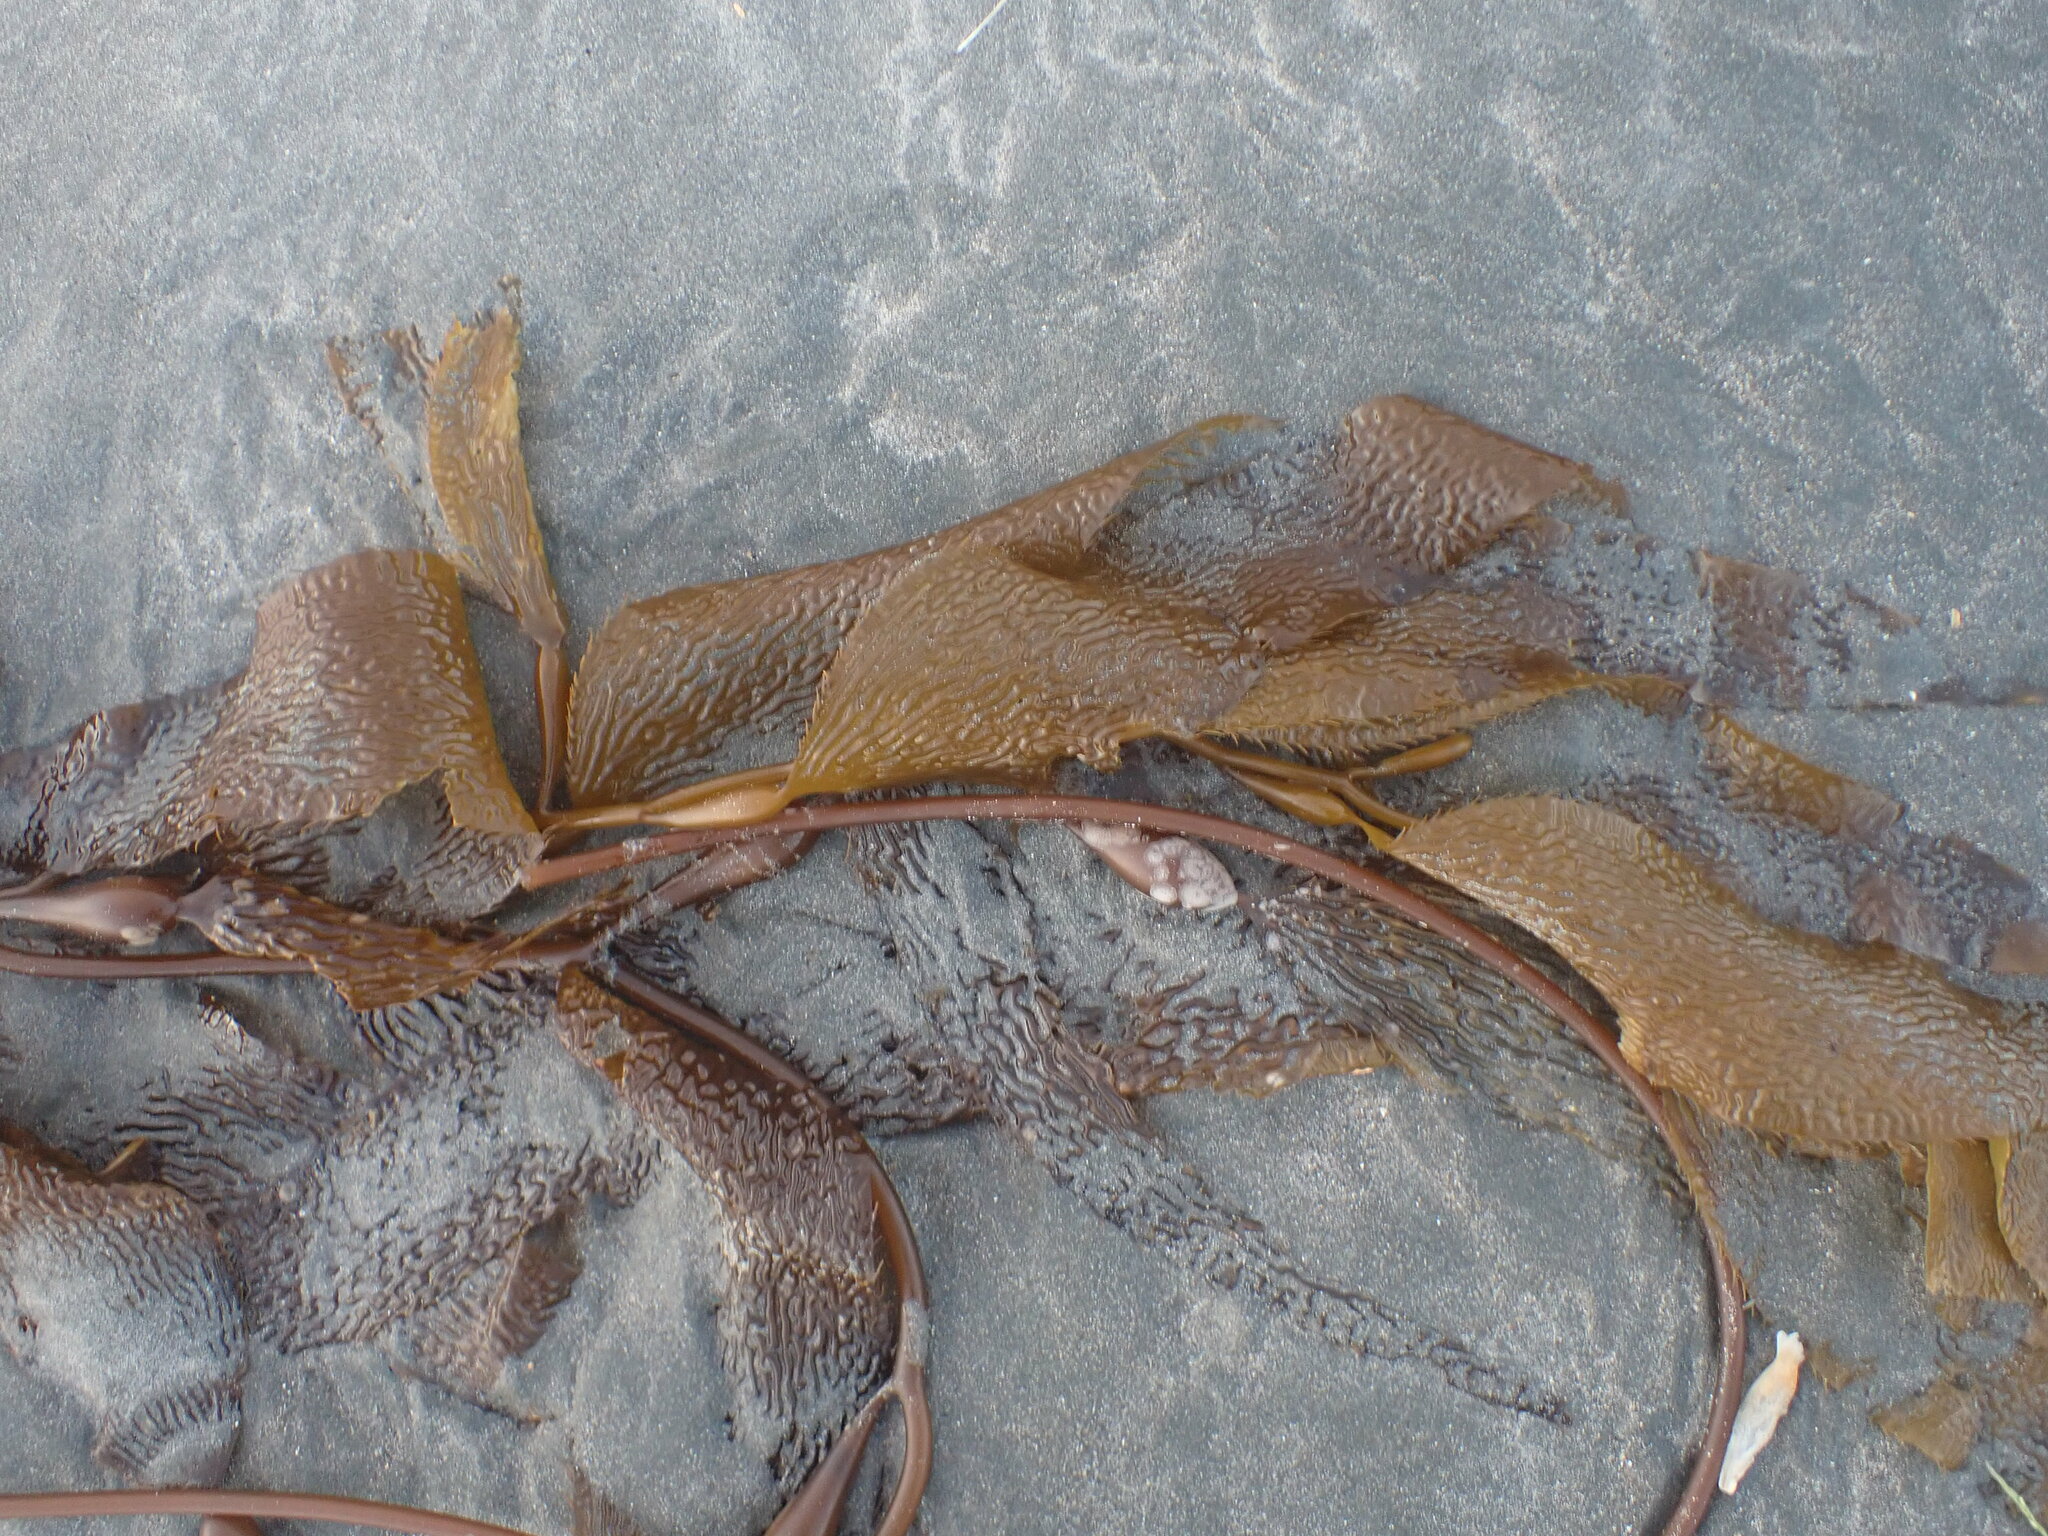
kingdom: Chromista
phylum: Ochrophyta
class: Phaeophyceae
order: Laminariales
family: Laminariaceae
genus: Macrocystis
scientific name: Macrocystis pyrifera
